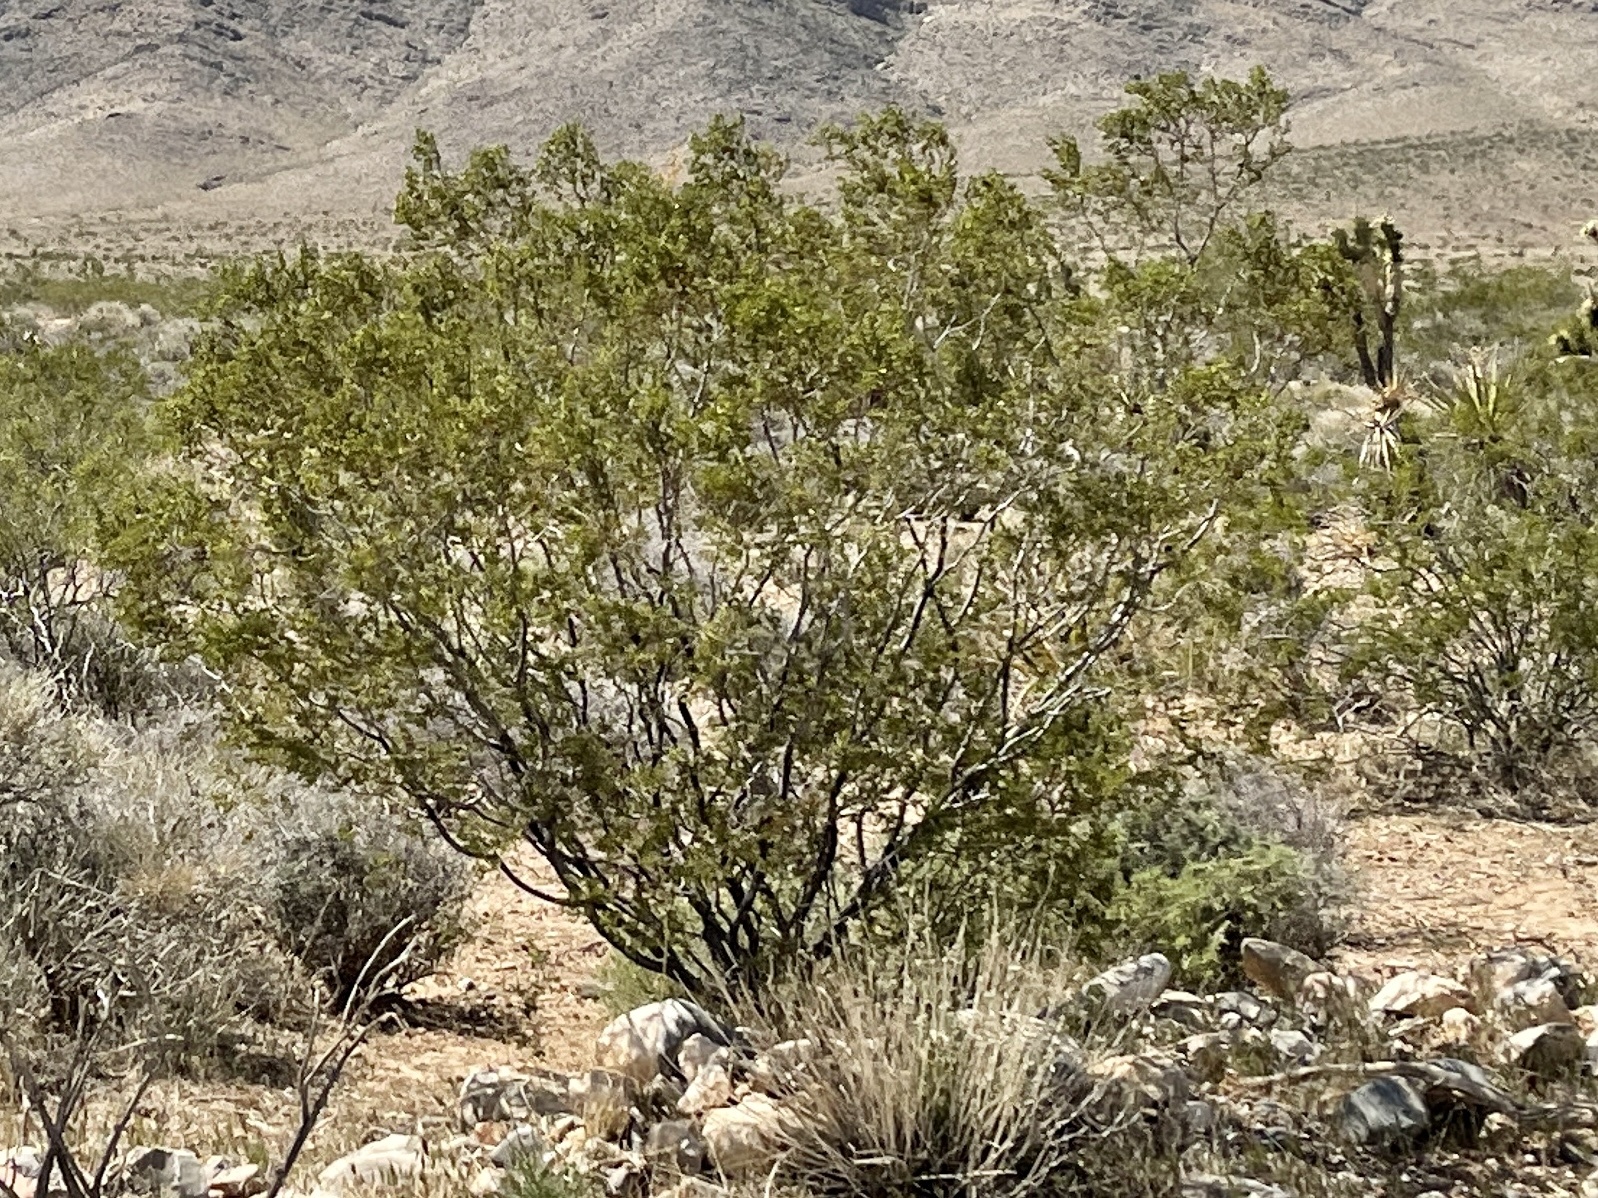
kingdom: Plantae
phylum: Tracheophyta
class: Magnoliopsida
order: Zygophyllales
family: Zygophyllaceae
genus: Larrea
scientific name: Larrea tridentata
